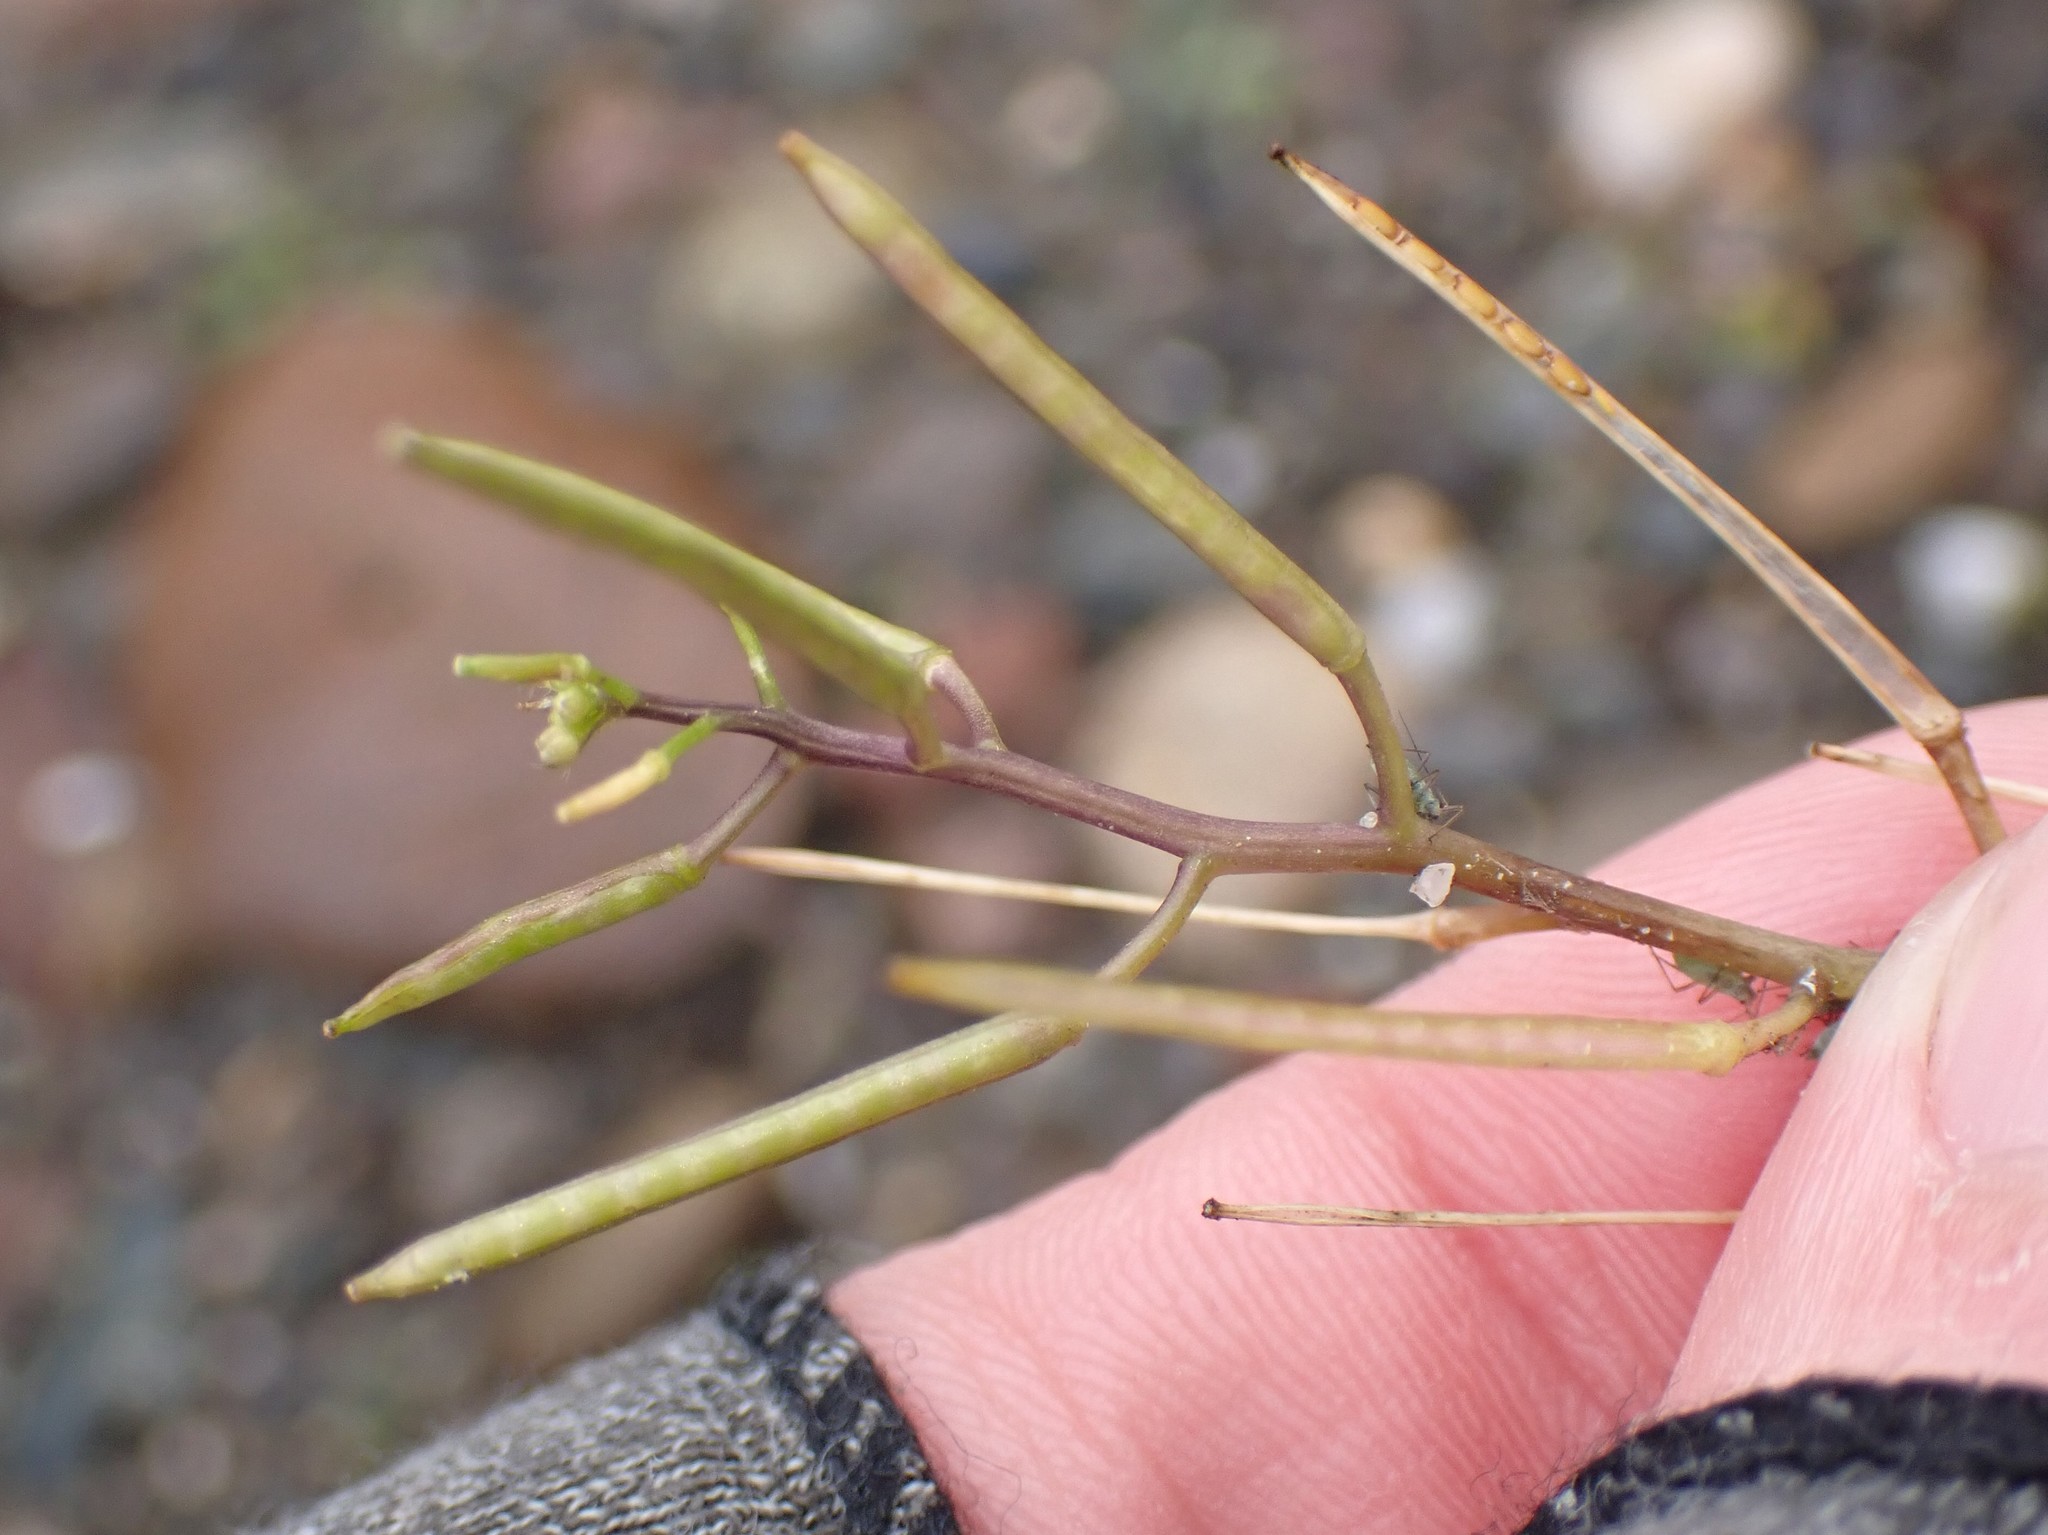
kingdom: Plantae
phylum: Tracheophyta
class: Magnoliopsida
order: Brassicales
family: Brassicaceae
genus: Cardamine
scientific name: Cardamine flexuosa
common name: Woodland bittercress
